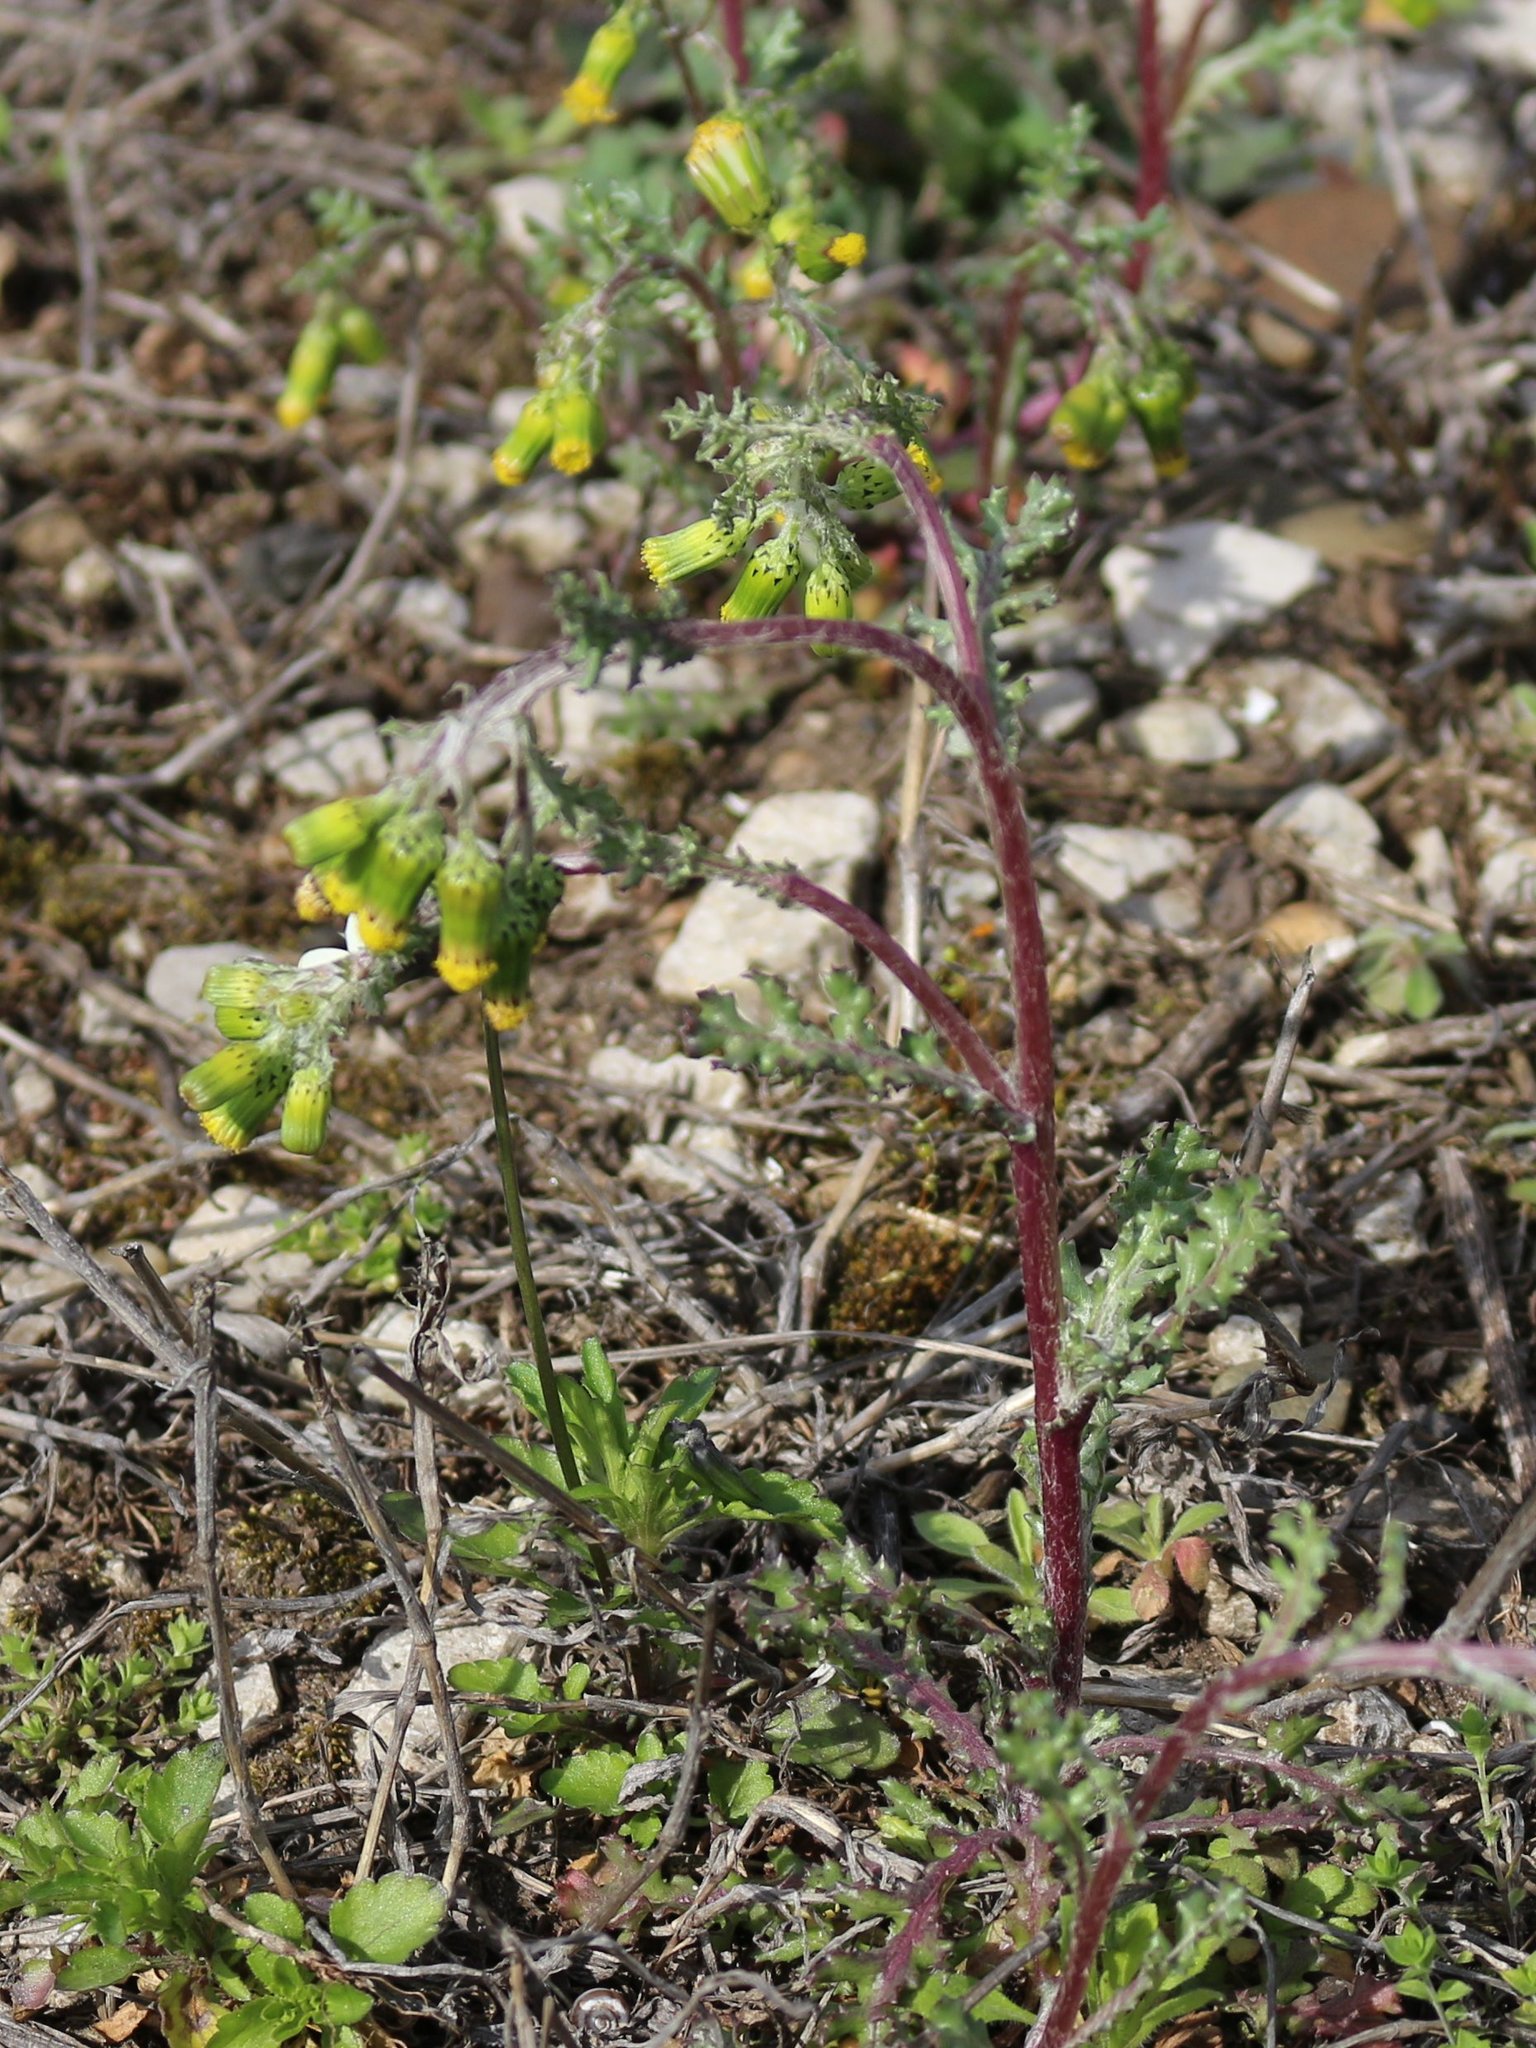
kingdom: Plantae
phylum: Tracheophyta
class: Magnoliopsida
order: Asterales
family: Asteraceae
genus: Senecio
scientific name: Senecio vulgaris
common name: Old-man-in-the-spring
